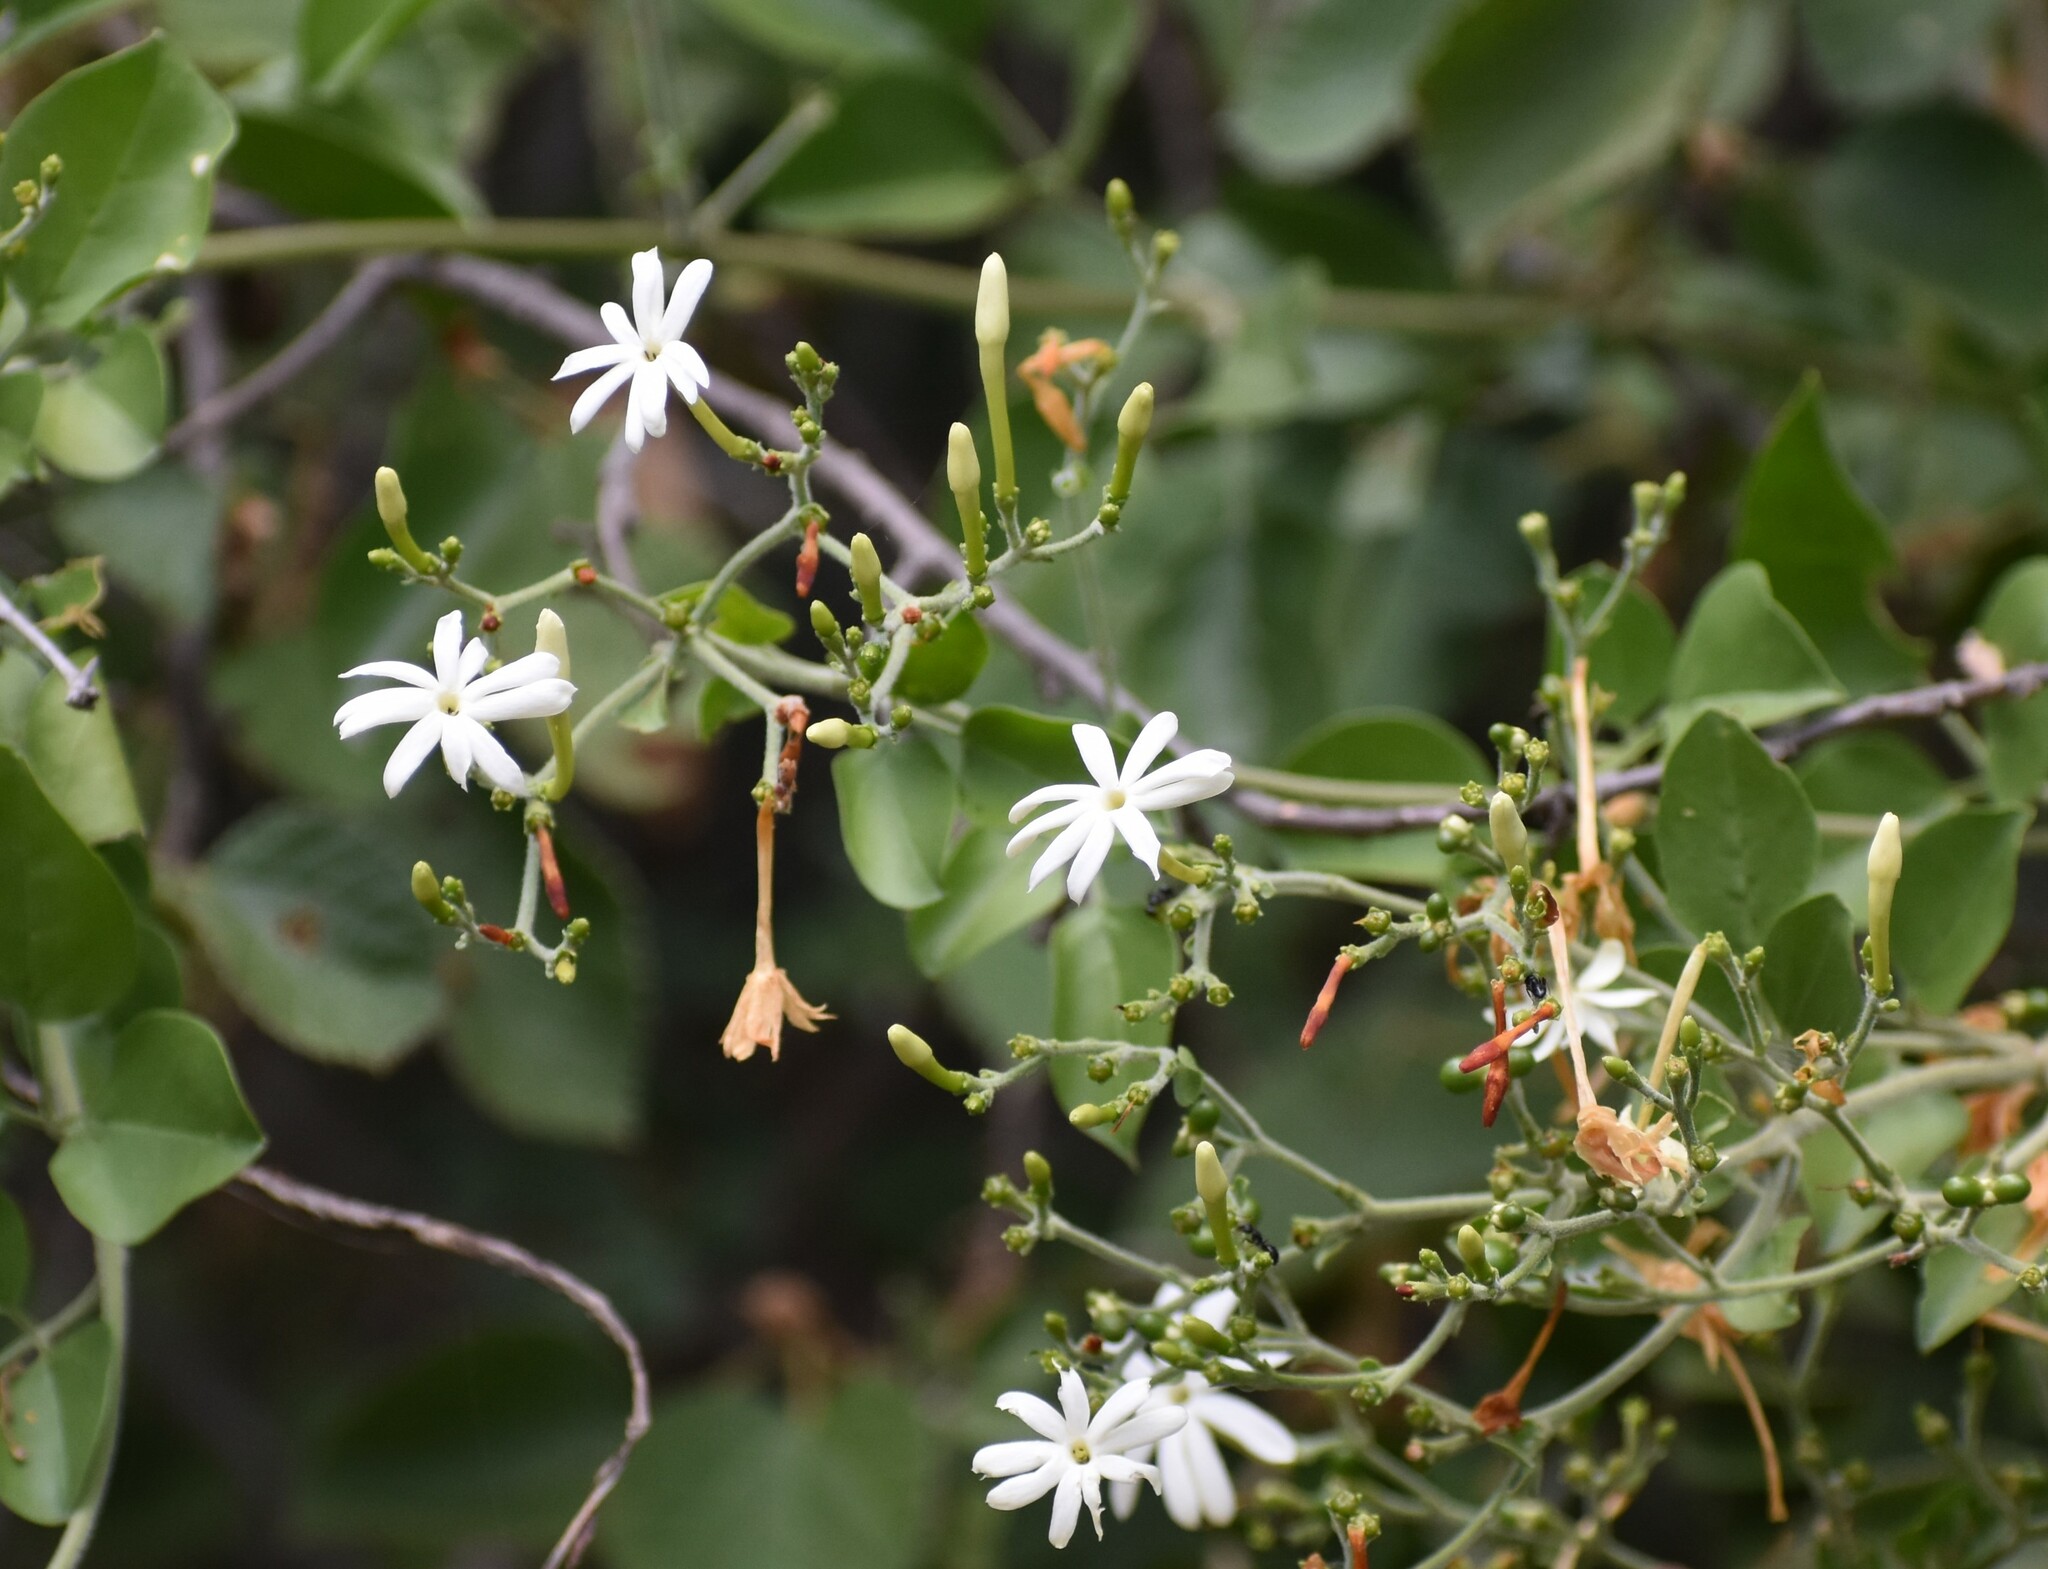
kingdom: Plantae
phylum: Tracheophyta
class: Magnoliopsida
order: Lamiales
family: Oleaceae
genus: Jasminum
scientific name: Jasminum fluminense
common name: Brazilian jasmine
